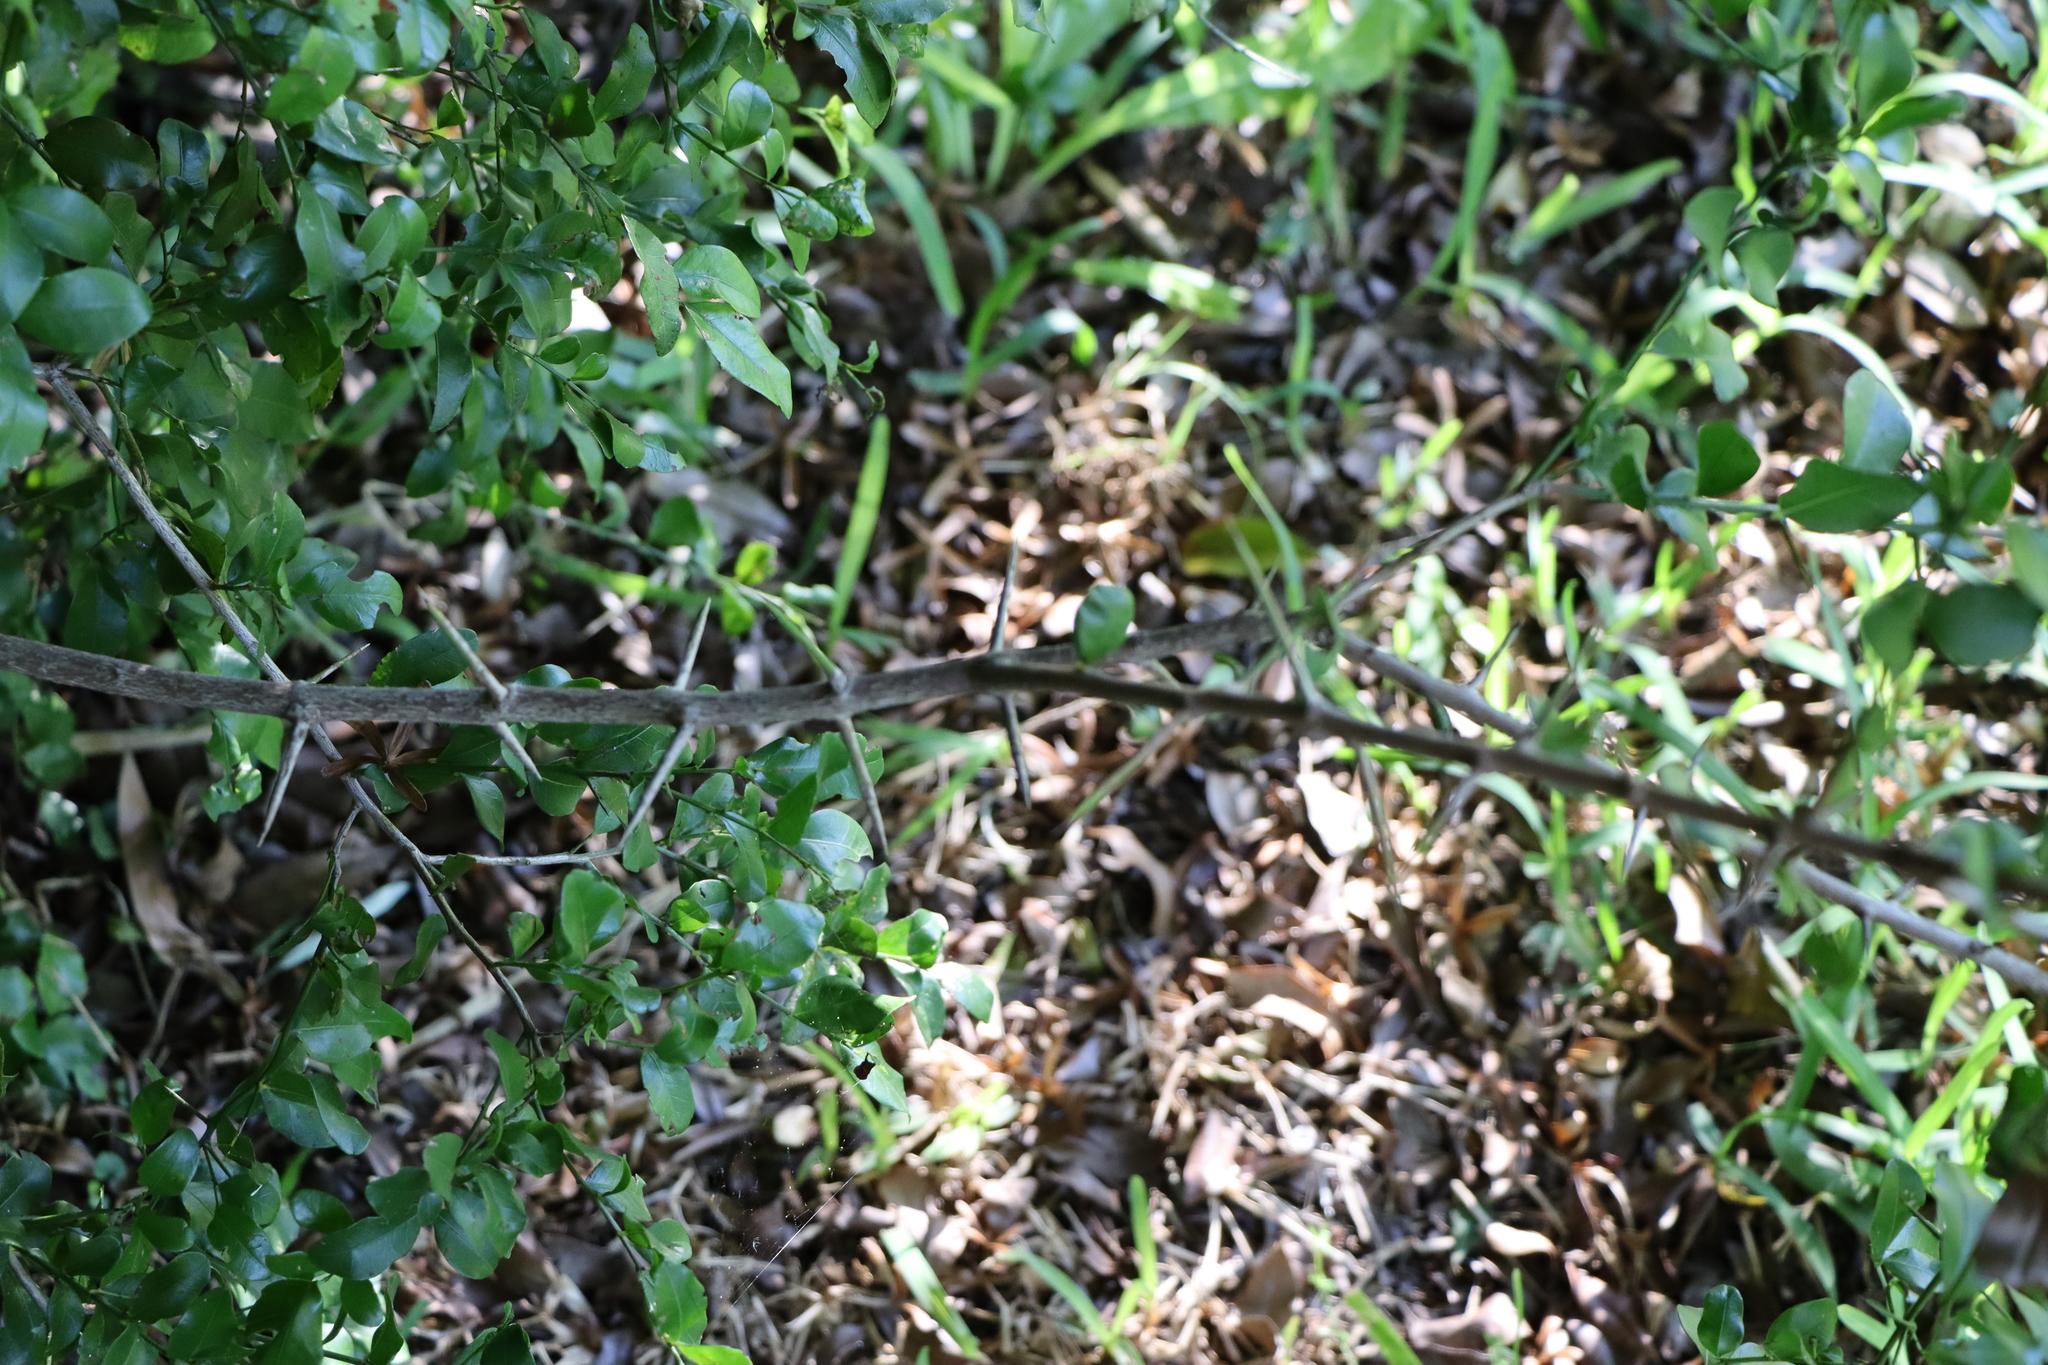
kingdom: Plantae
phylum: Tracheophyta
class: Magnoliopsida
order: Rosales
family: Rhamnaceae
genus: Scutia
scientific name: Scutia buxifolia
